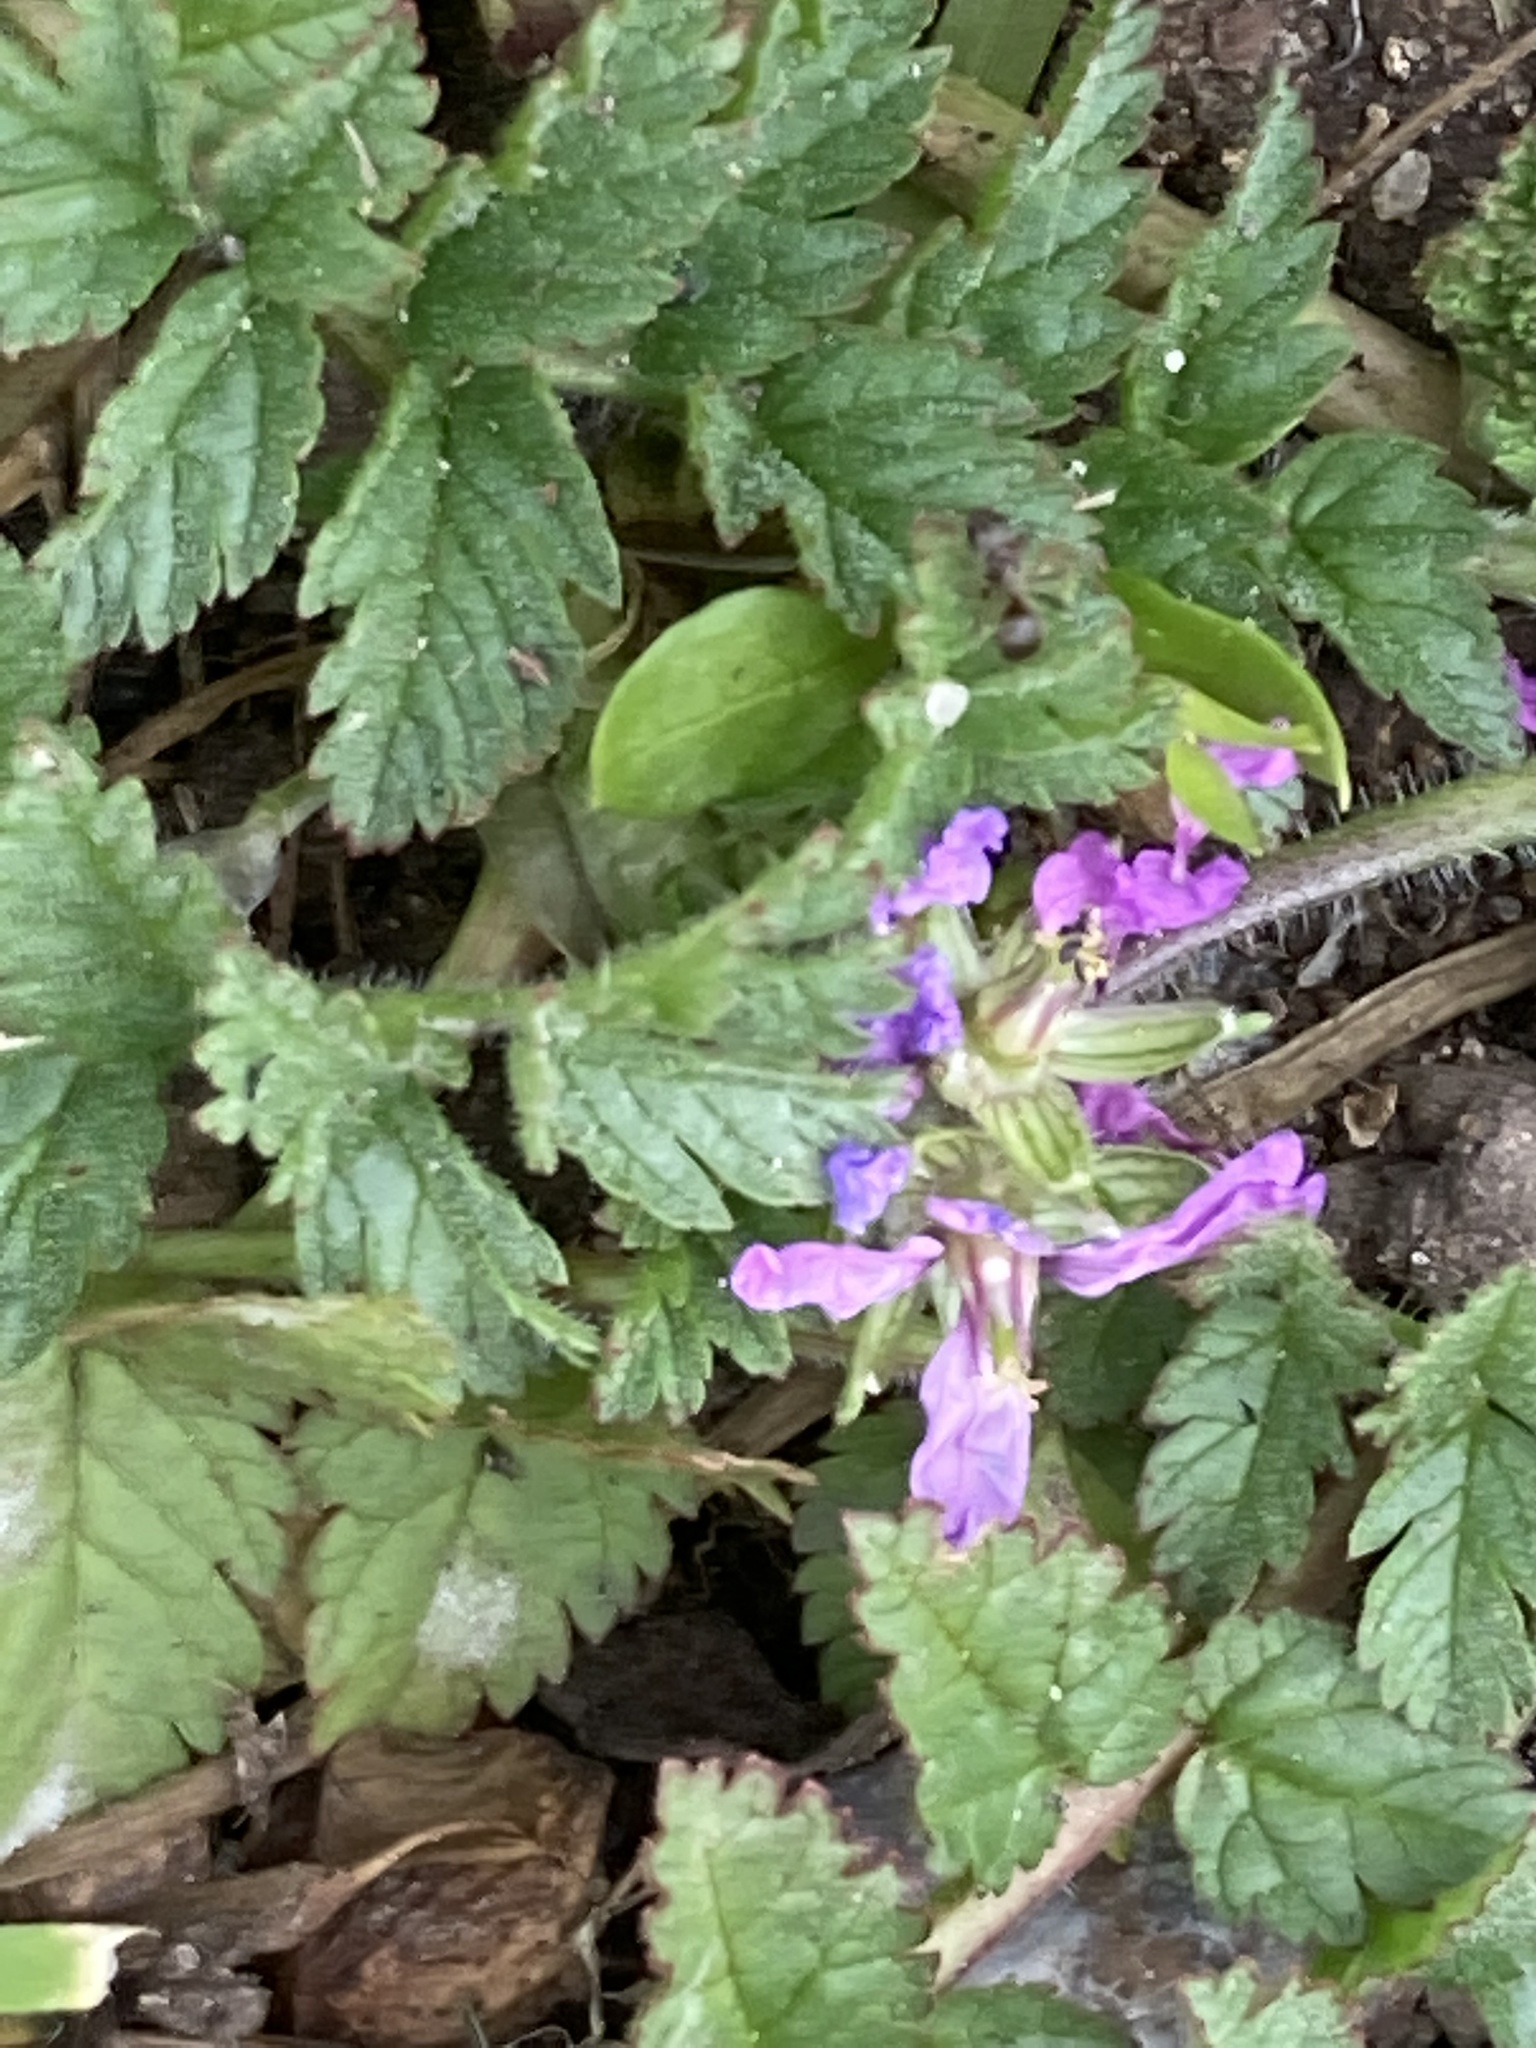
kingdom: Plantae
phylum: Tracheophyta
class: Magnoliopsida
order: Geraniales
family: Geraniaceae
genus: Erodium
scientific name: Erodium moschatum
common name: Musk stork's-bill
